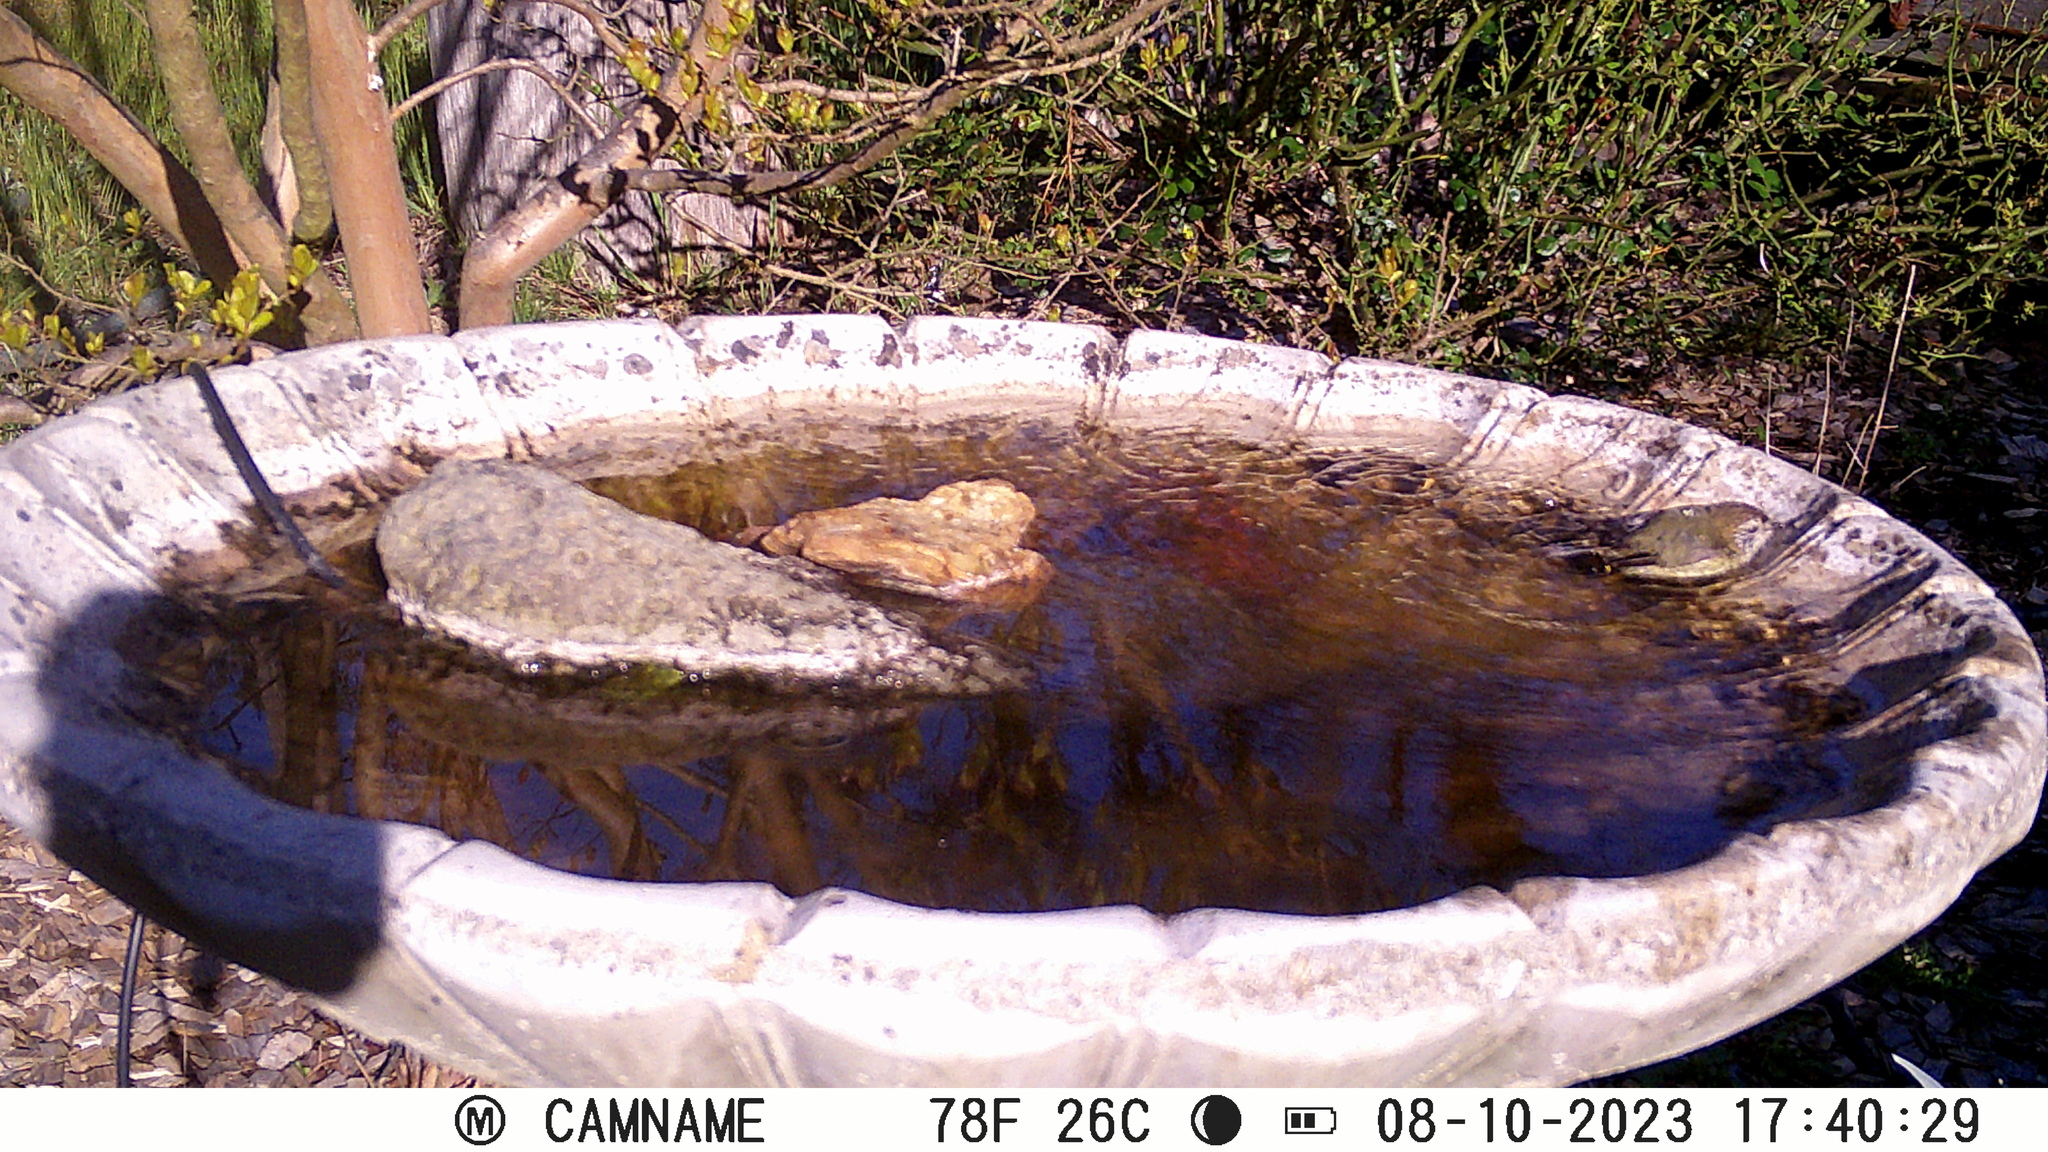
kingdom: Animalia
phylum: Chordata
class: Aves
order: Passeriformes
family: Acanthizidae
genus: Acanthiza
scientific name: Acanthiza lineata
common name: Striated thornbill
